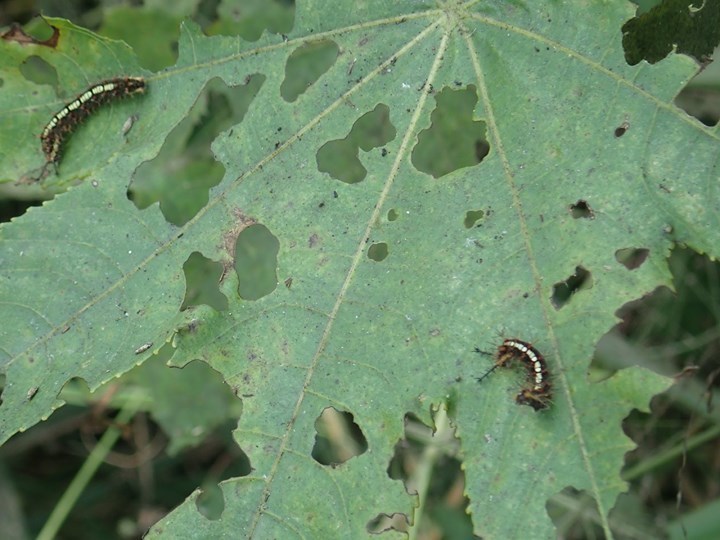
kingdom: Animalia
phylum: Arthropoda
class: Insecta
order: Lepidoptera
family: Nymphalidae
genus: Ariadne
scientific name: Ariadne ariadne
